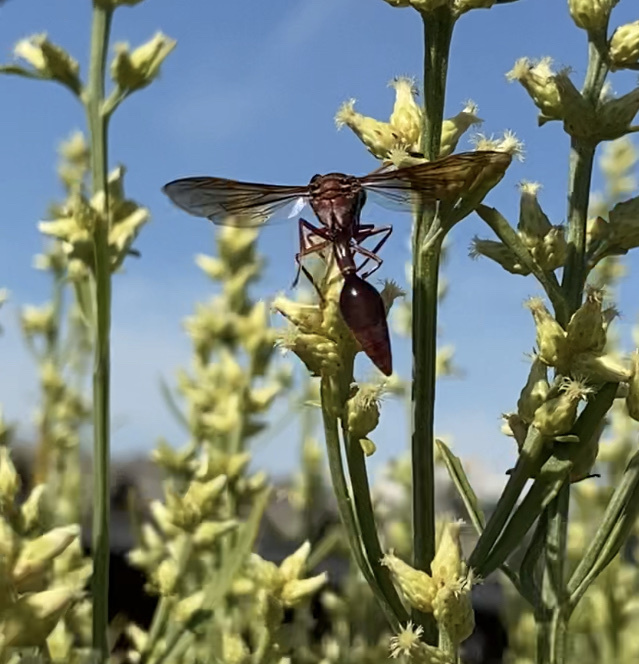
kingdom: Animalia
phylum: Arthropoda
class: Insecta
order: Hymenoptera
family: Eumenidae
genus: Zeta
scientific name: Zeta argillaceum
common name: Potter wasp
